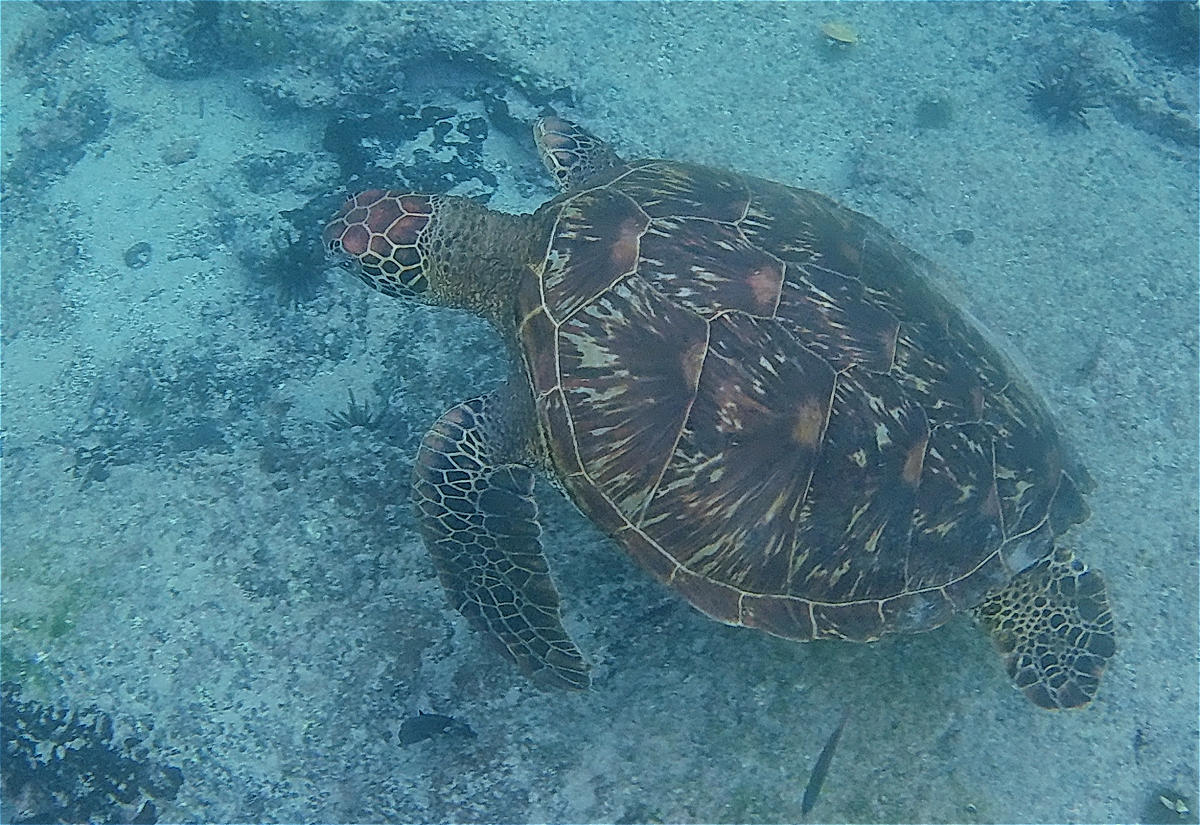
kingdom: Animalia
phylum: Chordata
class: Testudines
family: Cheloniidae
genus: Chelonia
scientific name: Chelonia mydas
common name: Green turtle
